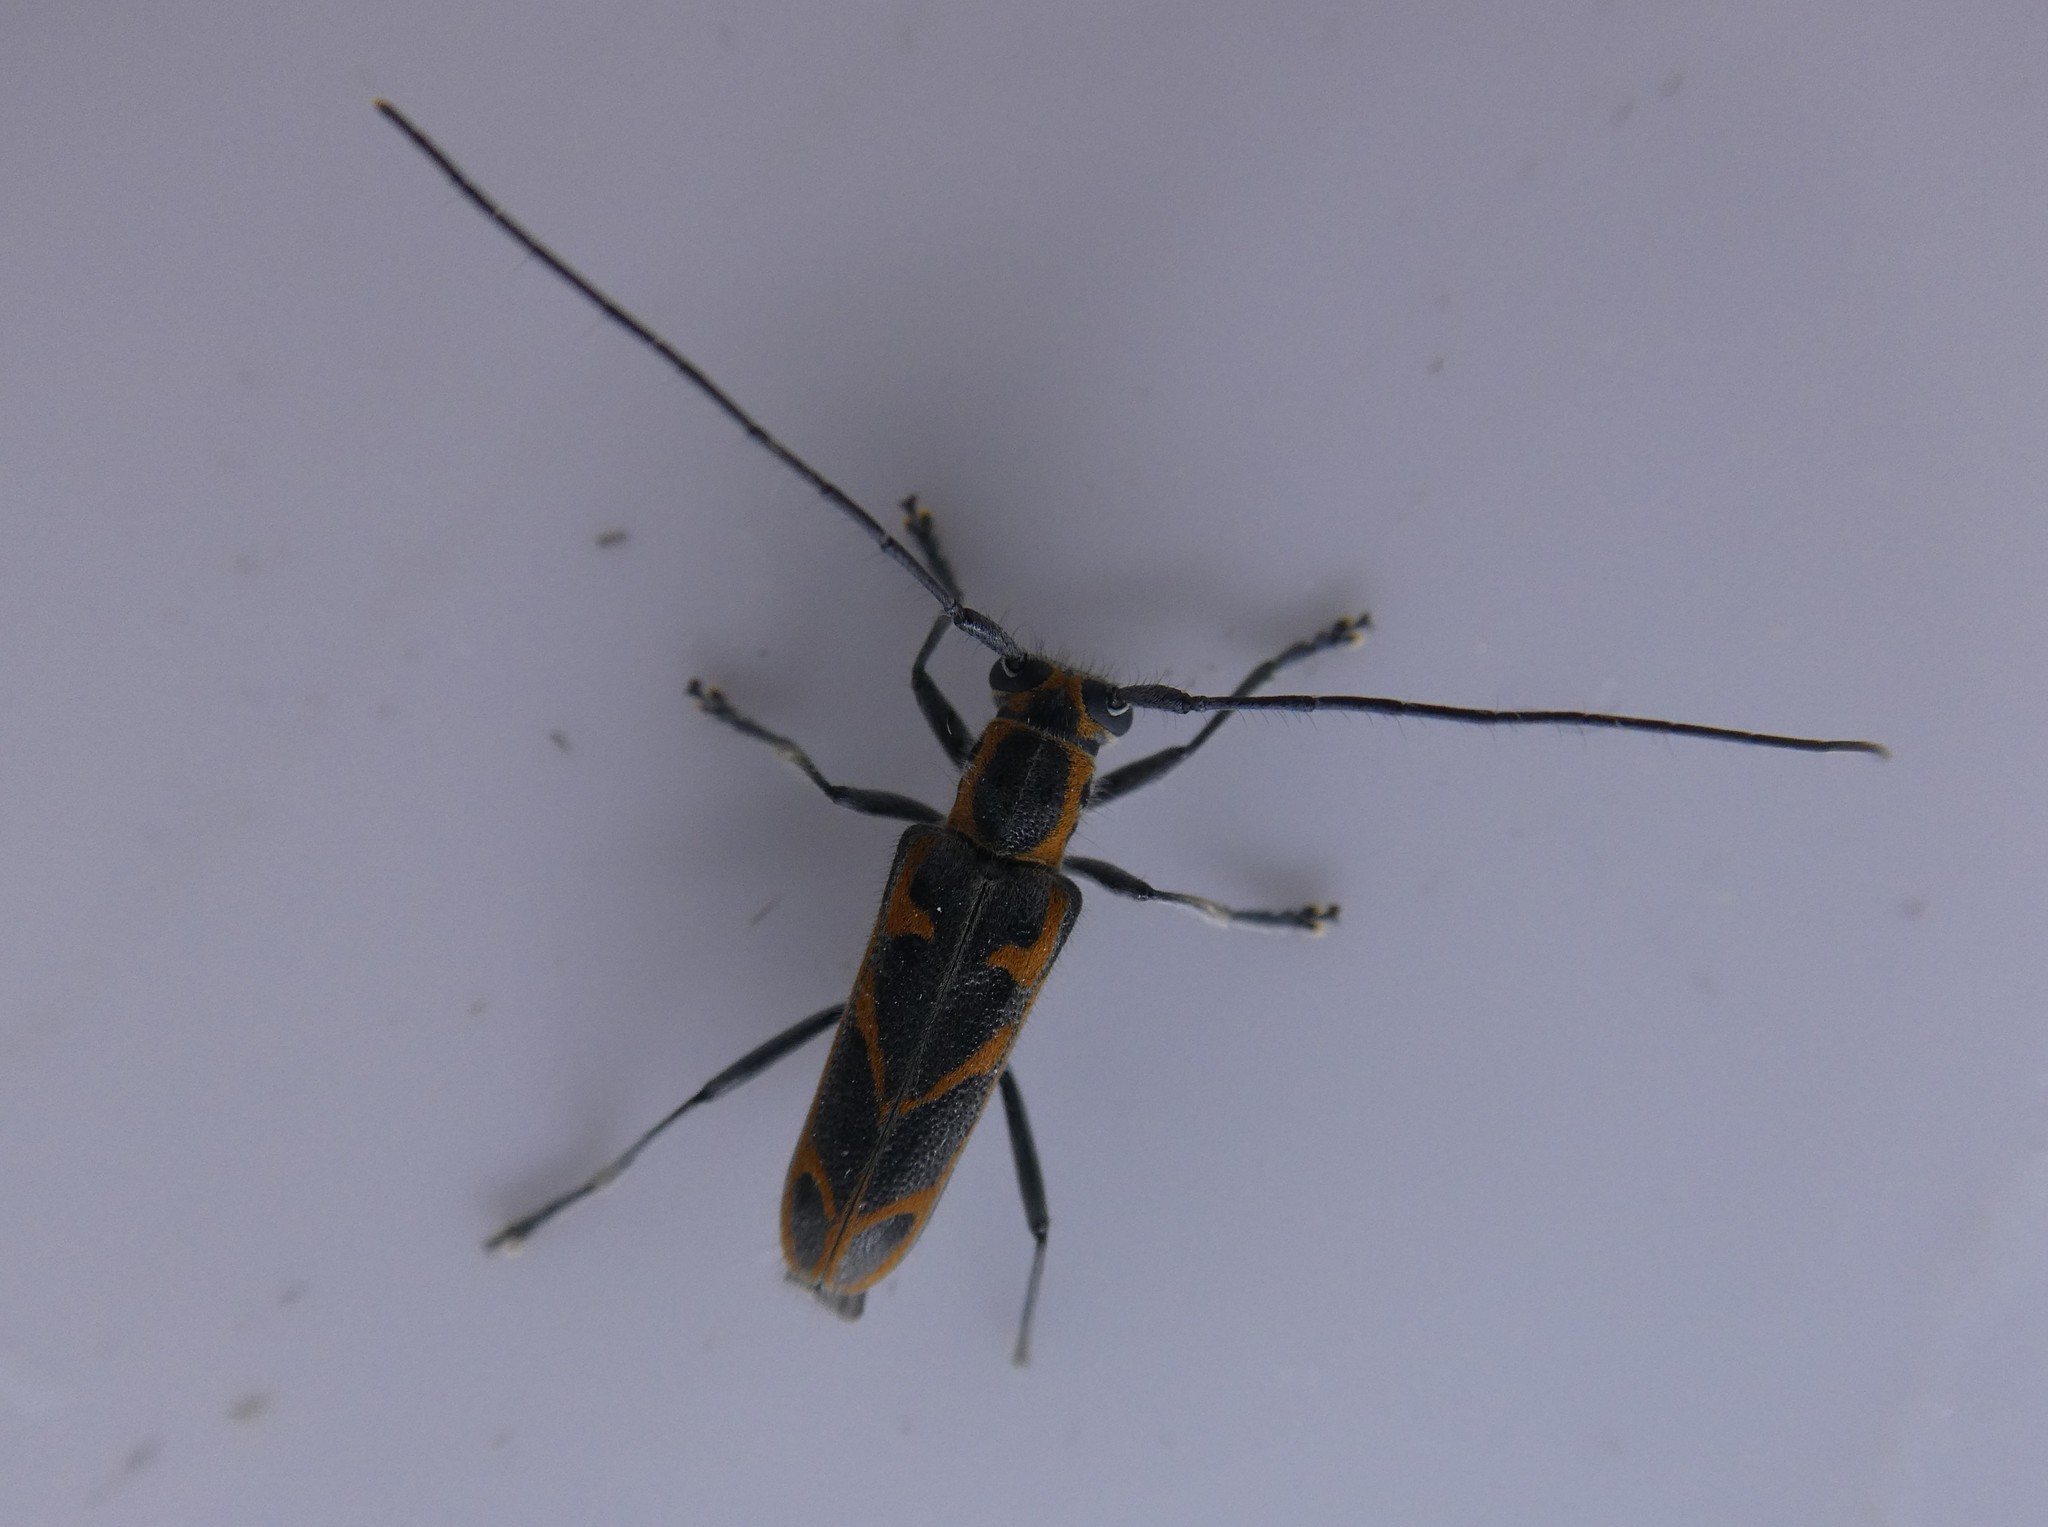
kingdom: Animalia
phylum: Arthropoda
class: Insecta
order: Coleoptera
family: Cerambycidae
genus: Saperda
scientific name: Saperda tridentata
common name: Elm borer
